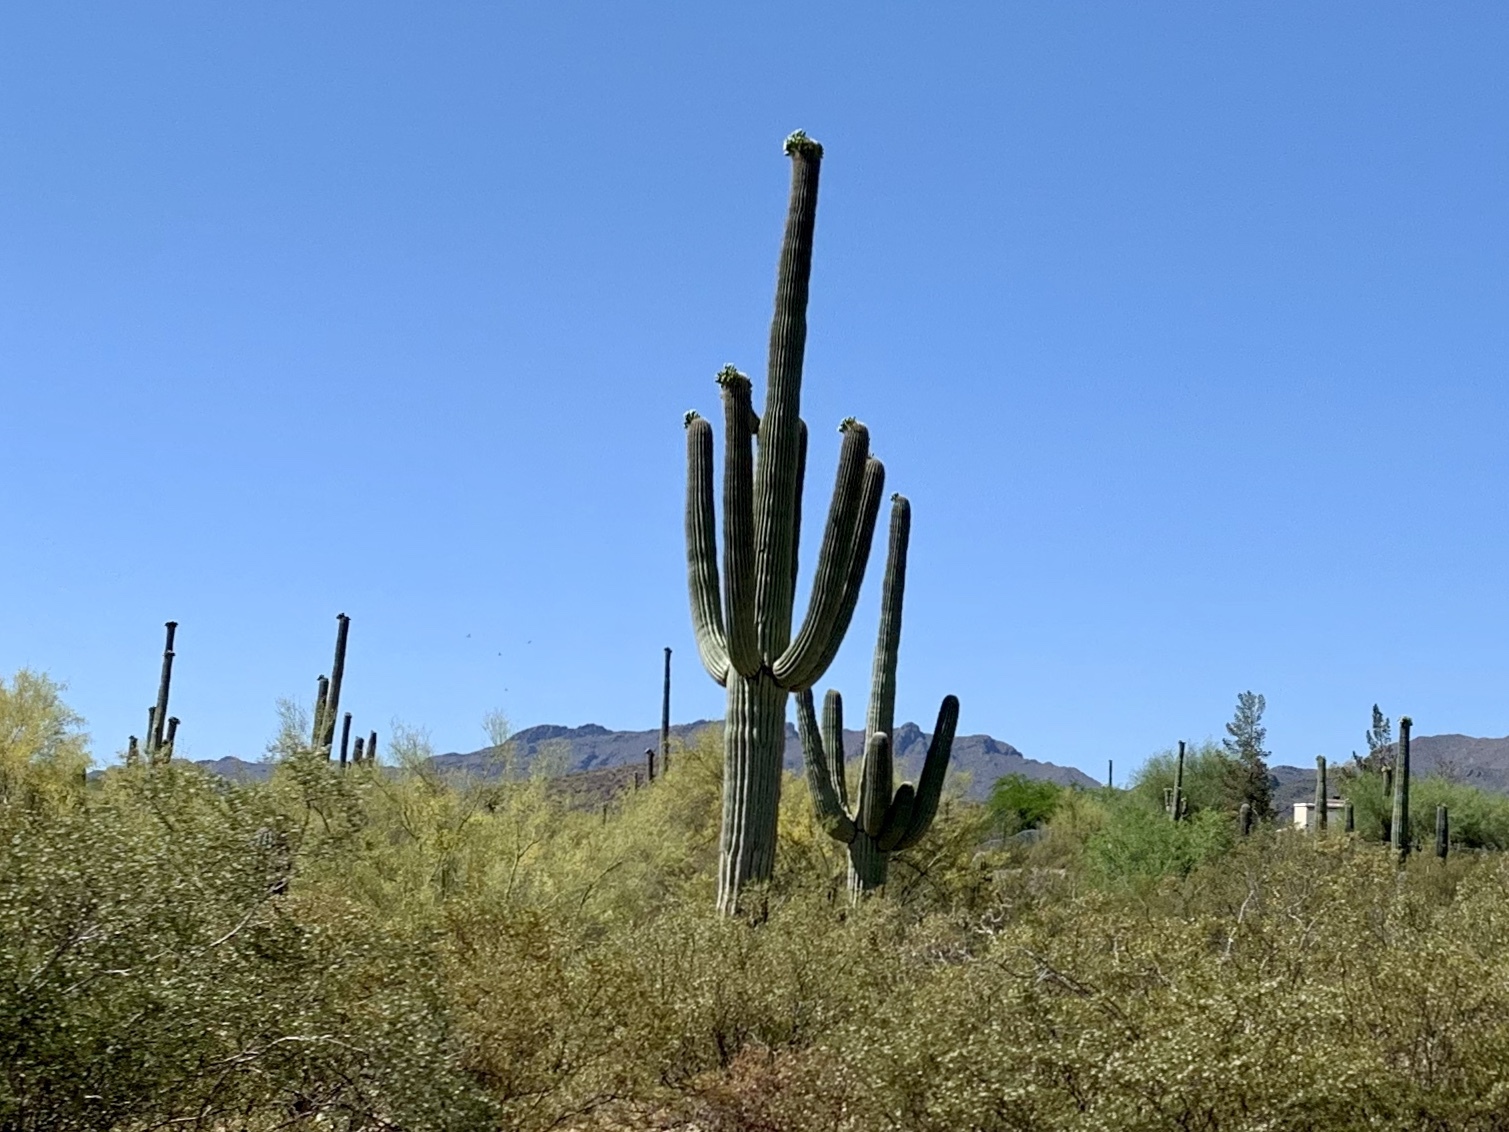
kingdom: Plantae
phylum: Tracheophyta
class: Magnoliopsida
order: Caryophyllales
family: Cactaceae
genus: Carnegiea
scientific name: Carnegiea gigantea
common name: Saguaro
